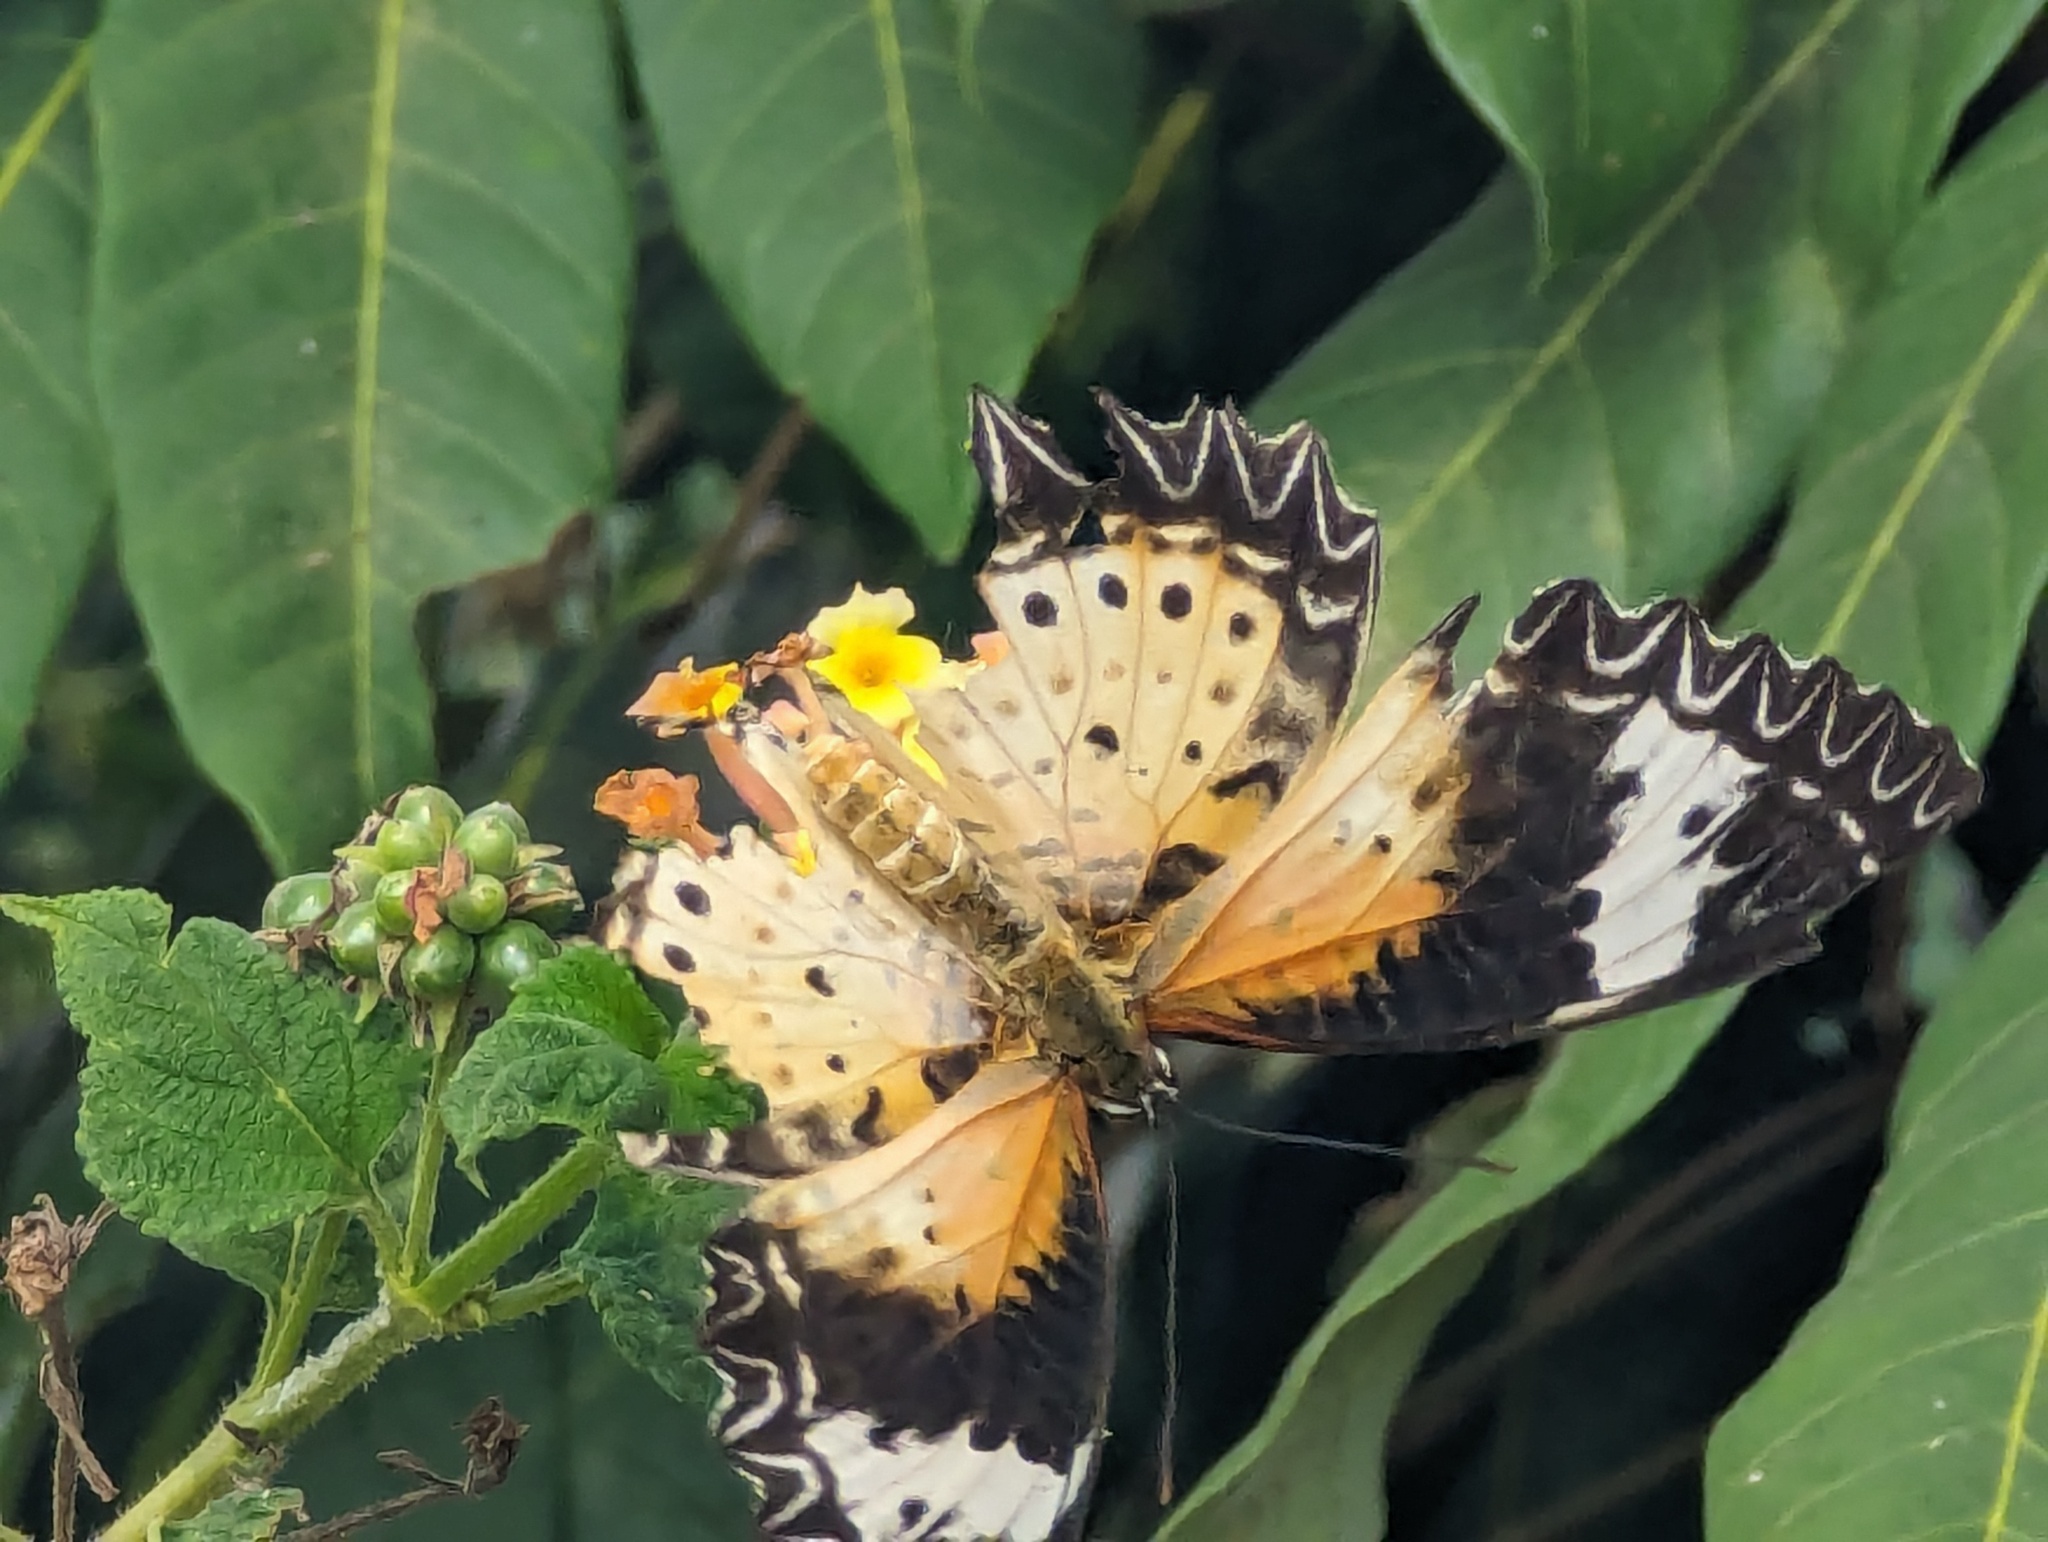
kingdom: Animalia
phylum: Arthropoda
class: Insecta
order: Lepidoptera
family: Nymphalidae
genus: Cethosia
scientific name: Cethosia cyane
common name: Leopard lacewing butterfly
